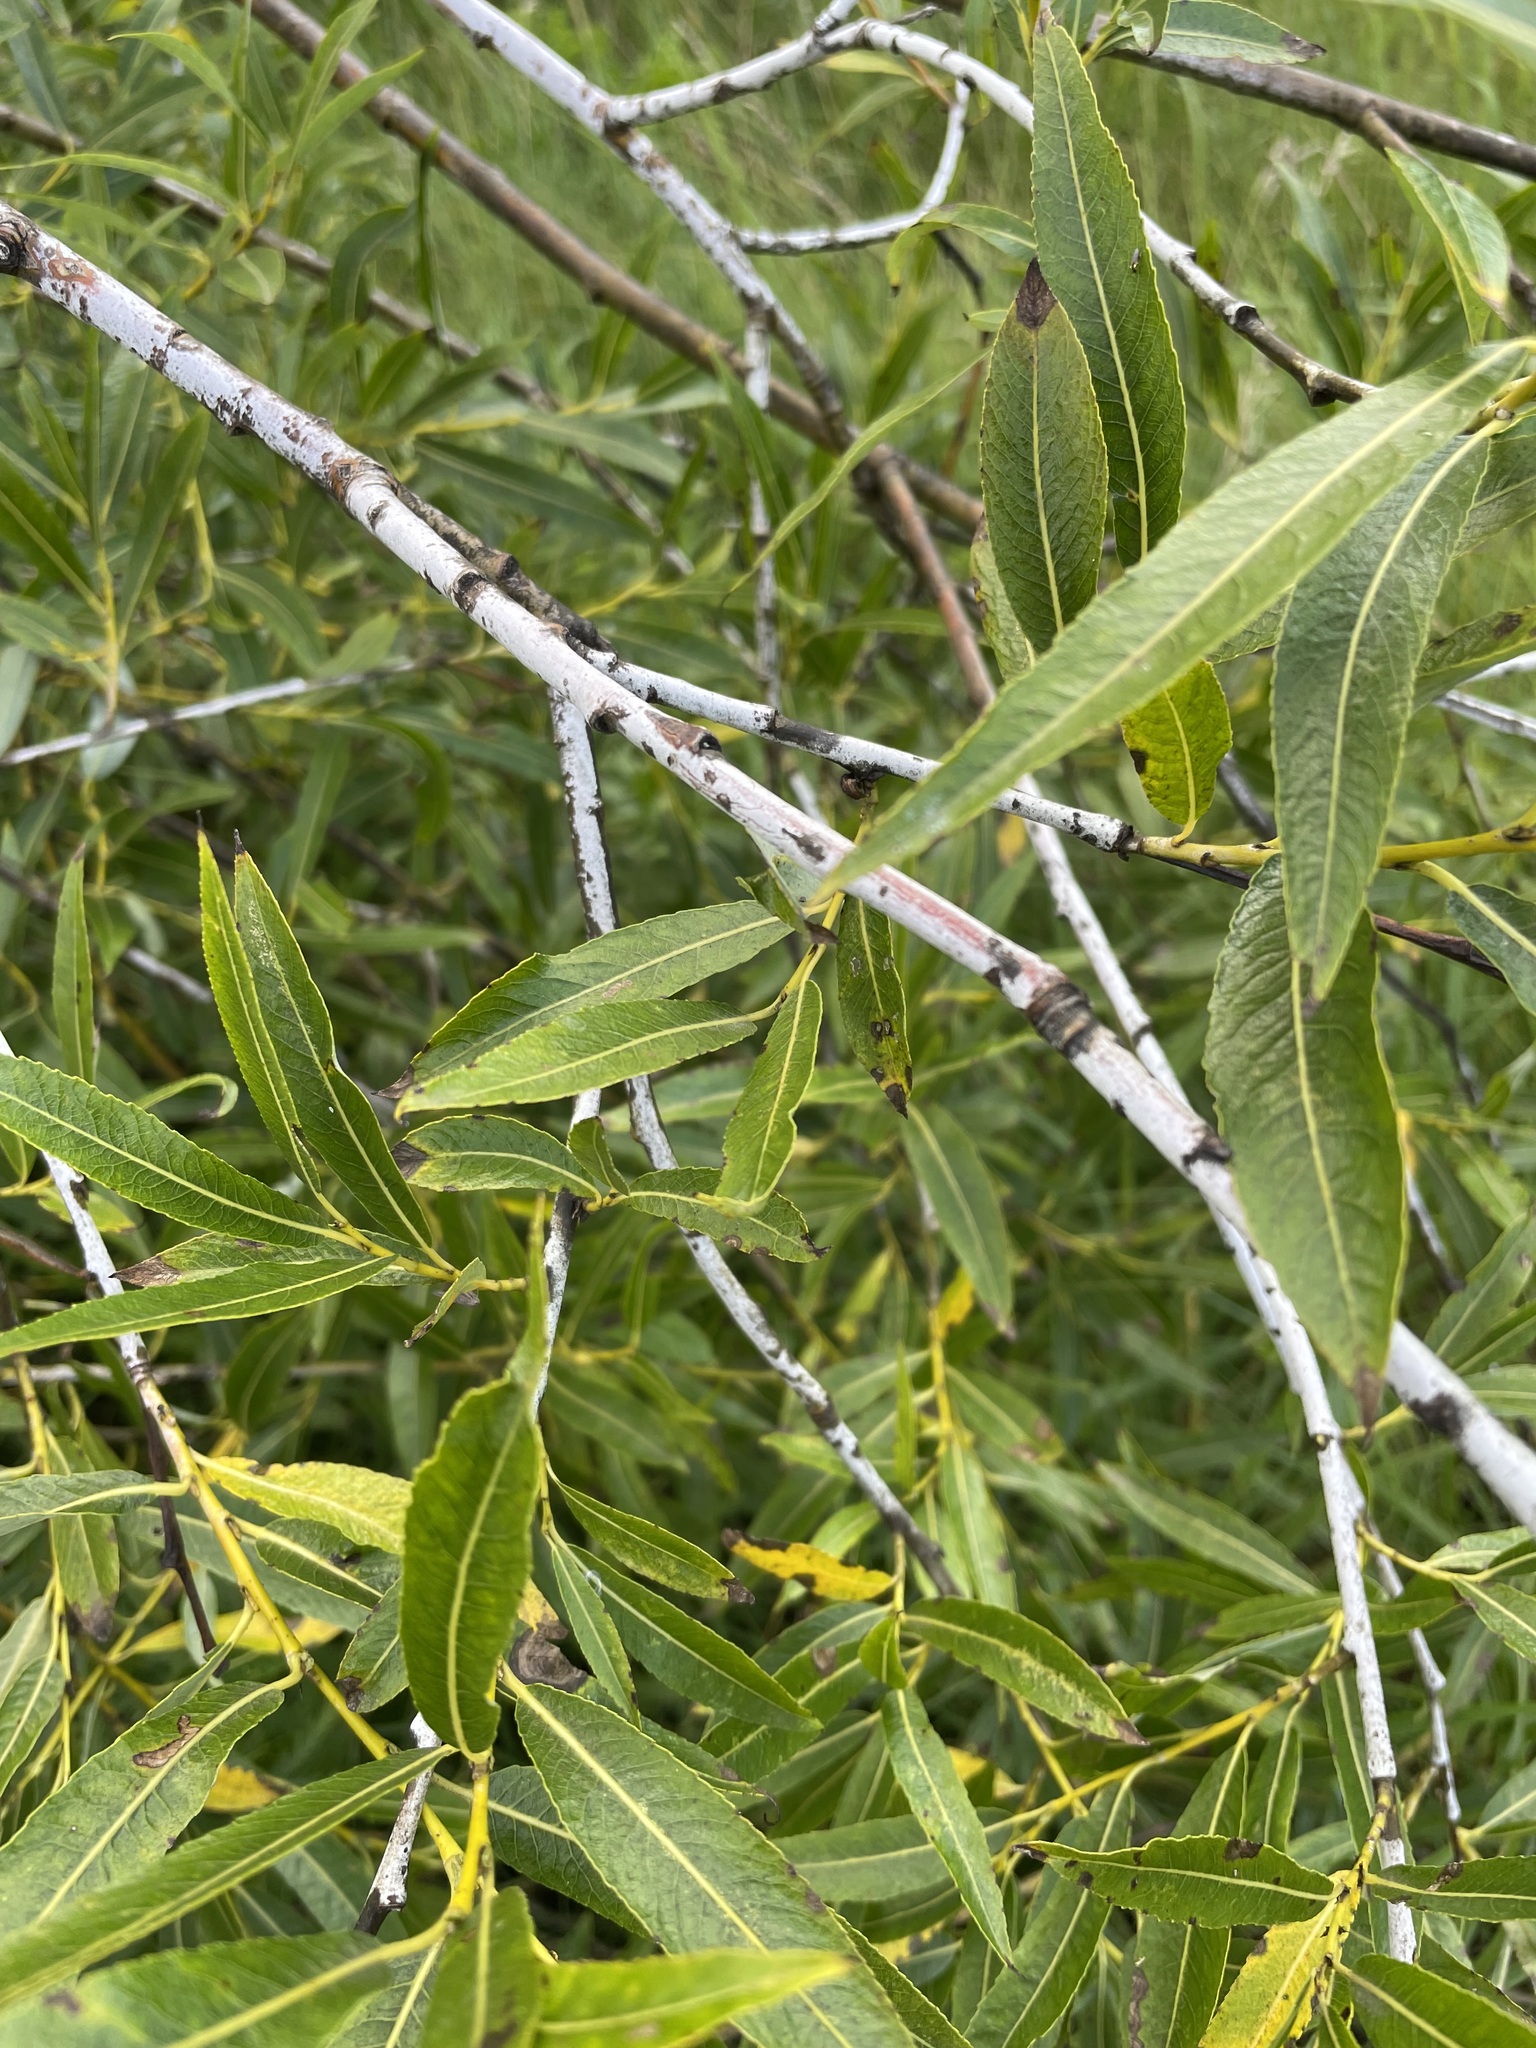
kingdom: Plantae
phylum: Tracheophyta
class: Magnoliopsida
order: Malpighiales
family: Salicaceae
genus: Salix
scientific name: Salix acutifolia
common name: Siberian violet-willow
